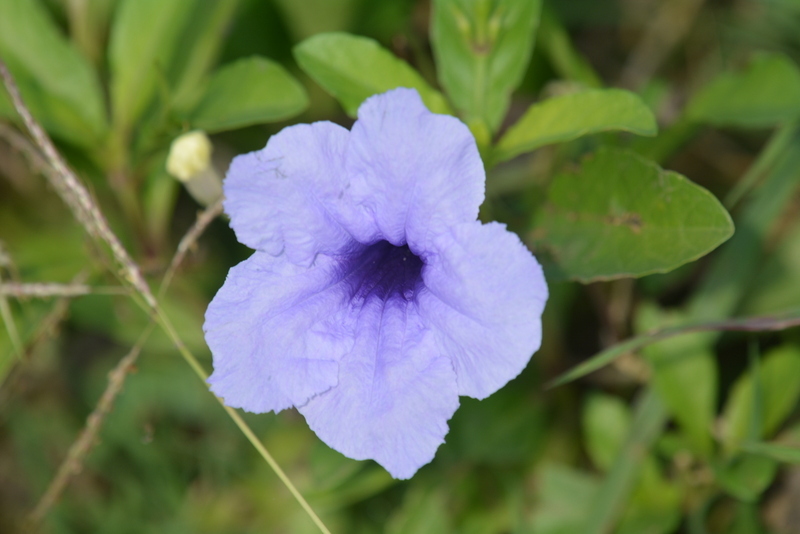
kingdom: Plantae
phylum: Tracheophyta
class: Magnoliopsida
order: Lamiales
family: Acanthaceae
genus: Ruellia
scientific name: Ruellia tuberosa
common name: Devil's bit
